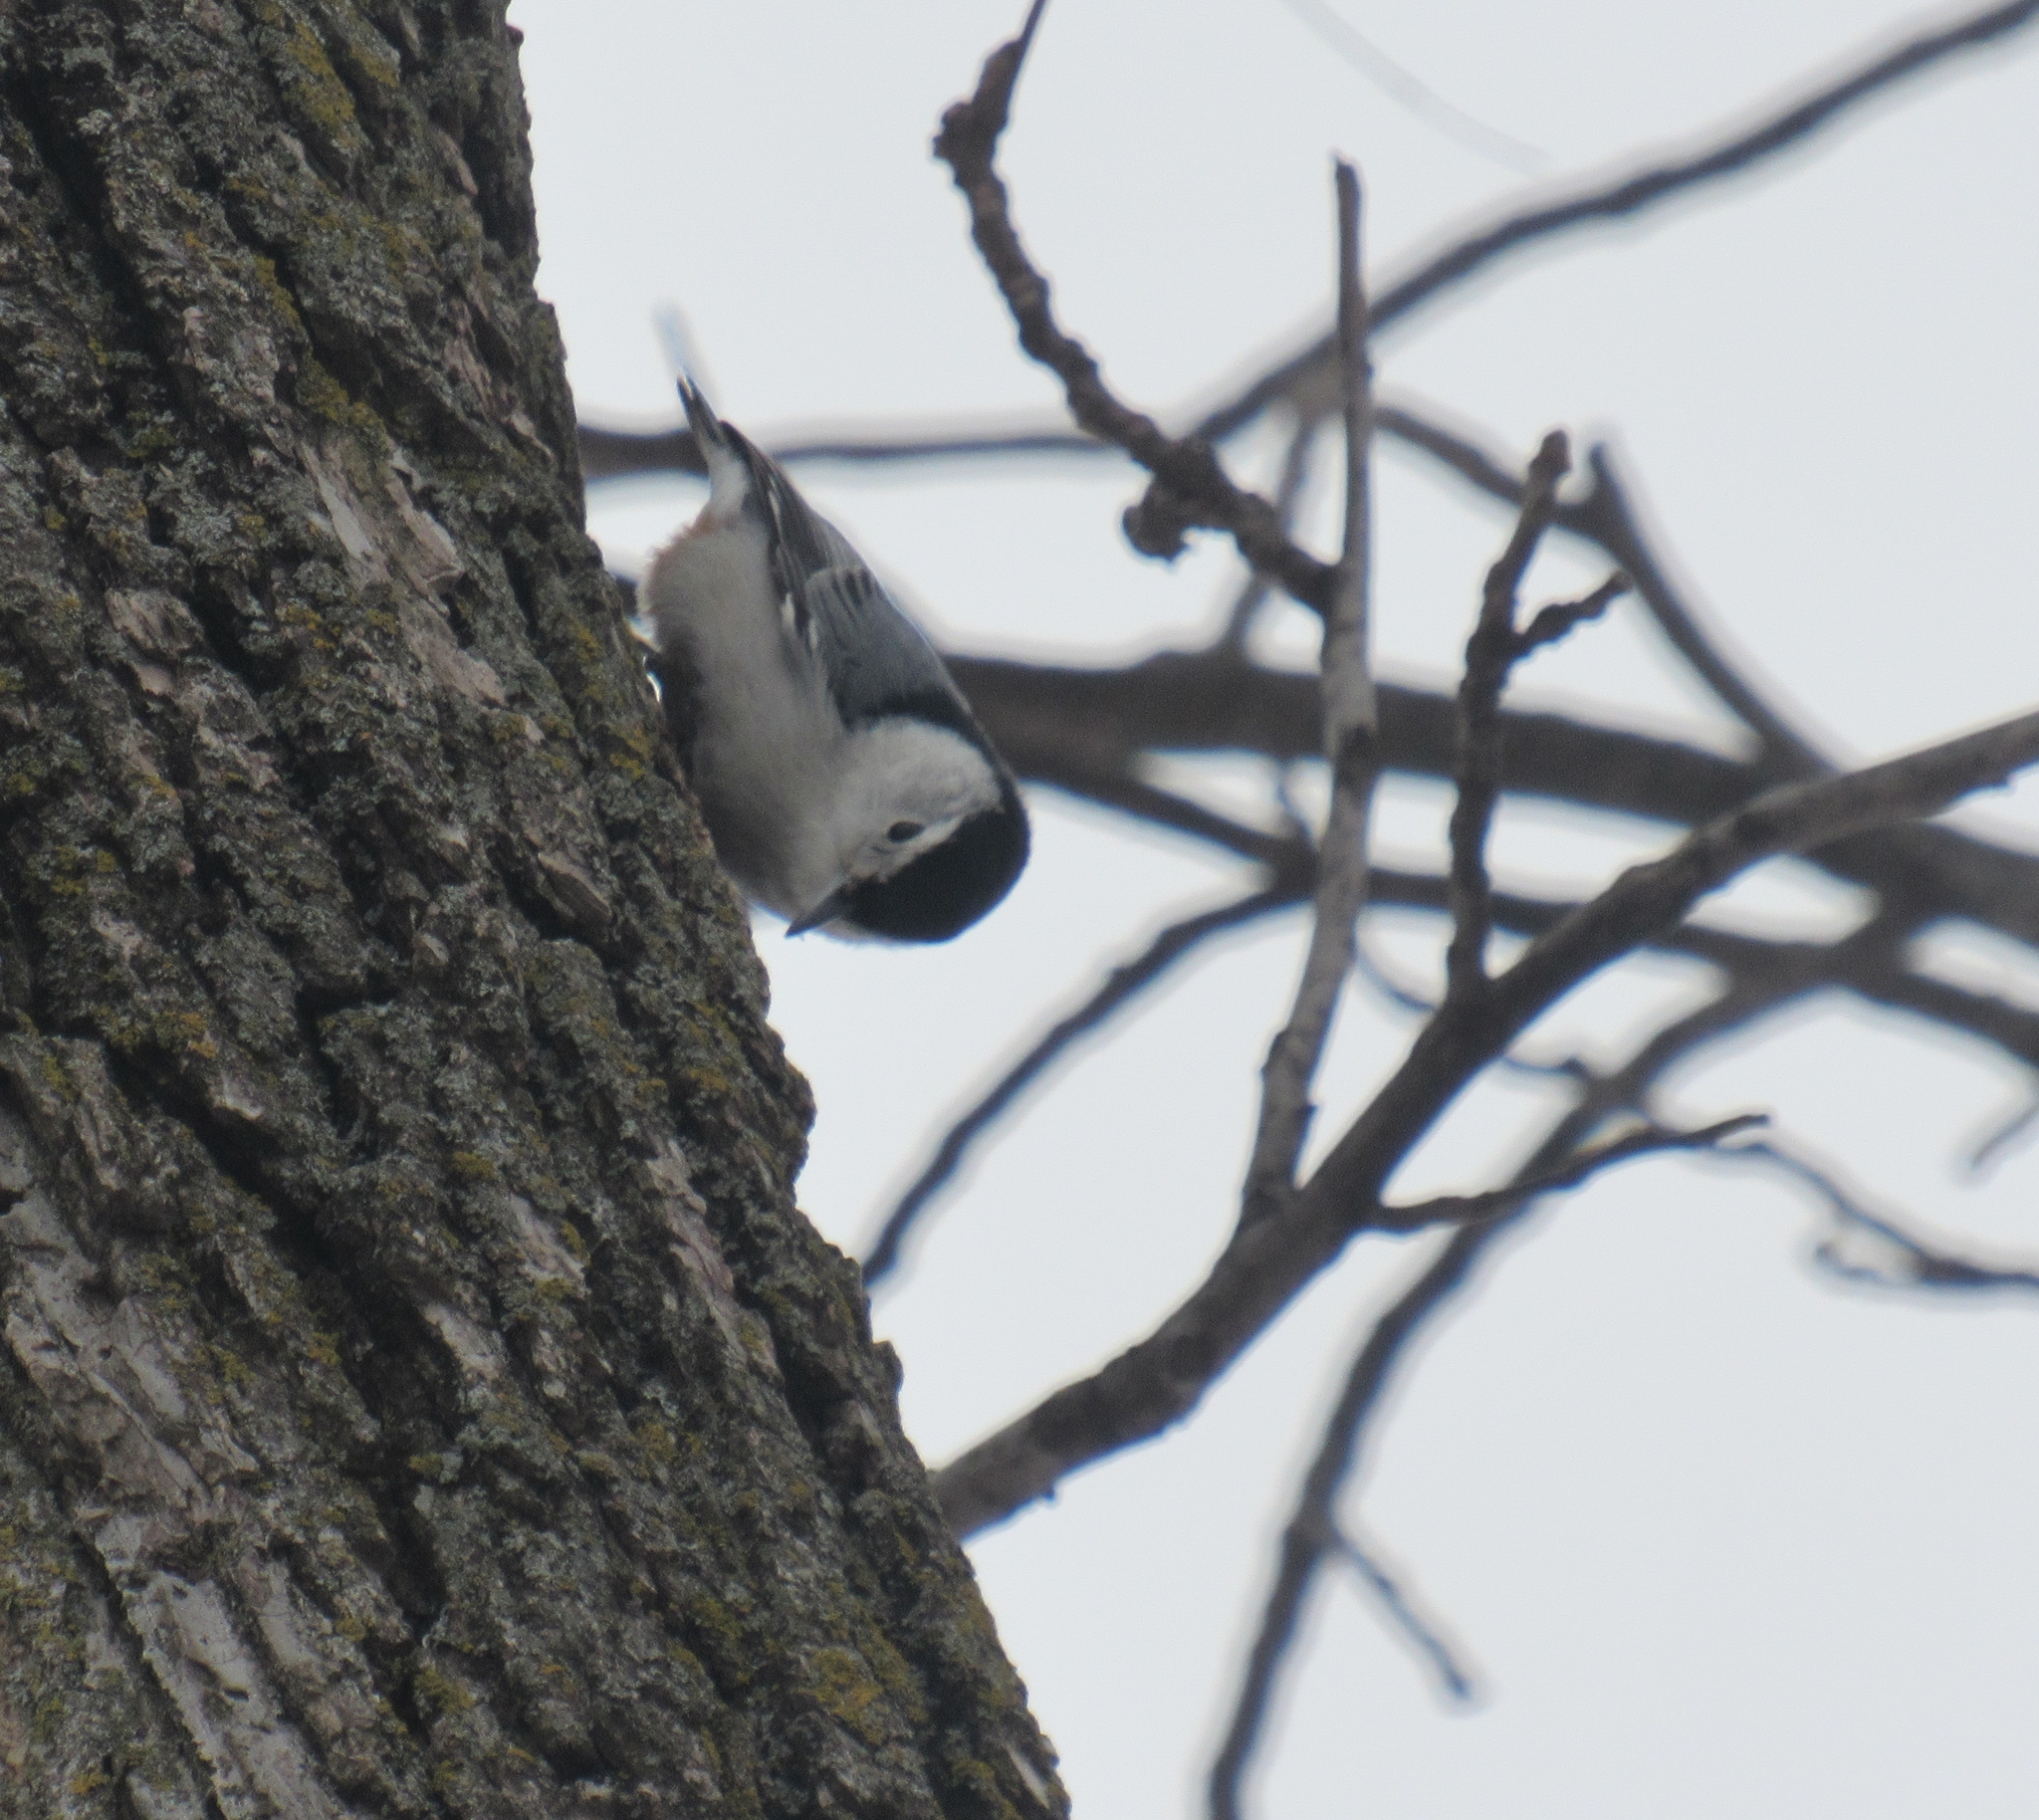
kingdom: Animalia
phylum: Chordata
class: Aves
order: Passeriformes
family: Sittidae
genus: Sitta
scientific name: Sitta carolinensis
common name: White-breasted nuthatch
